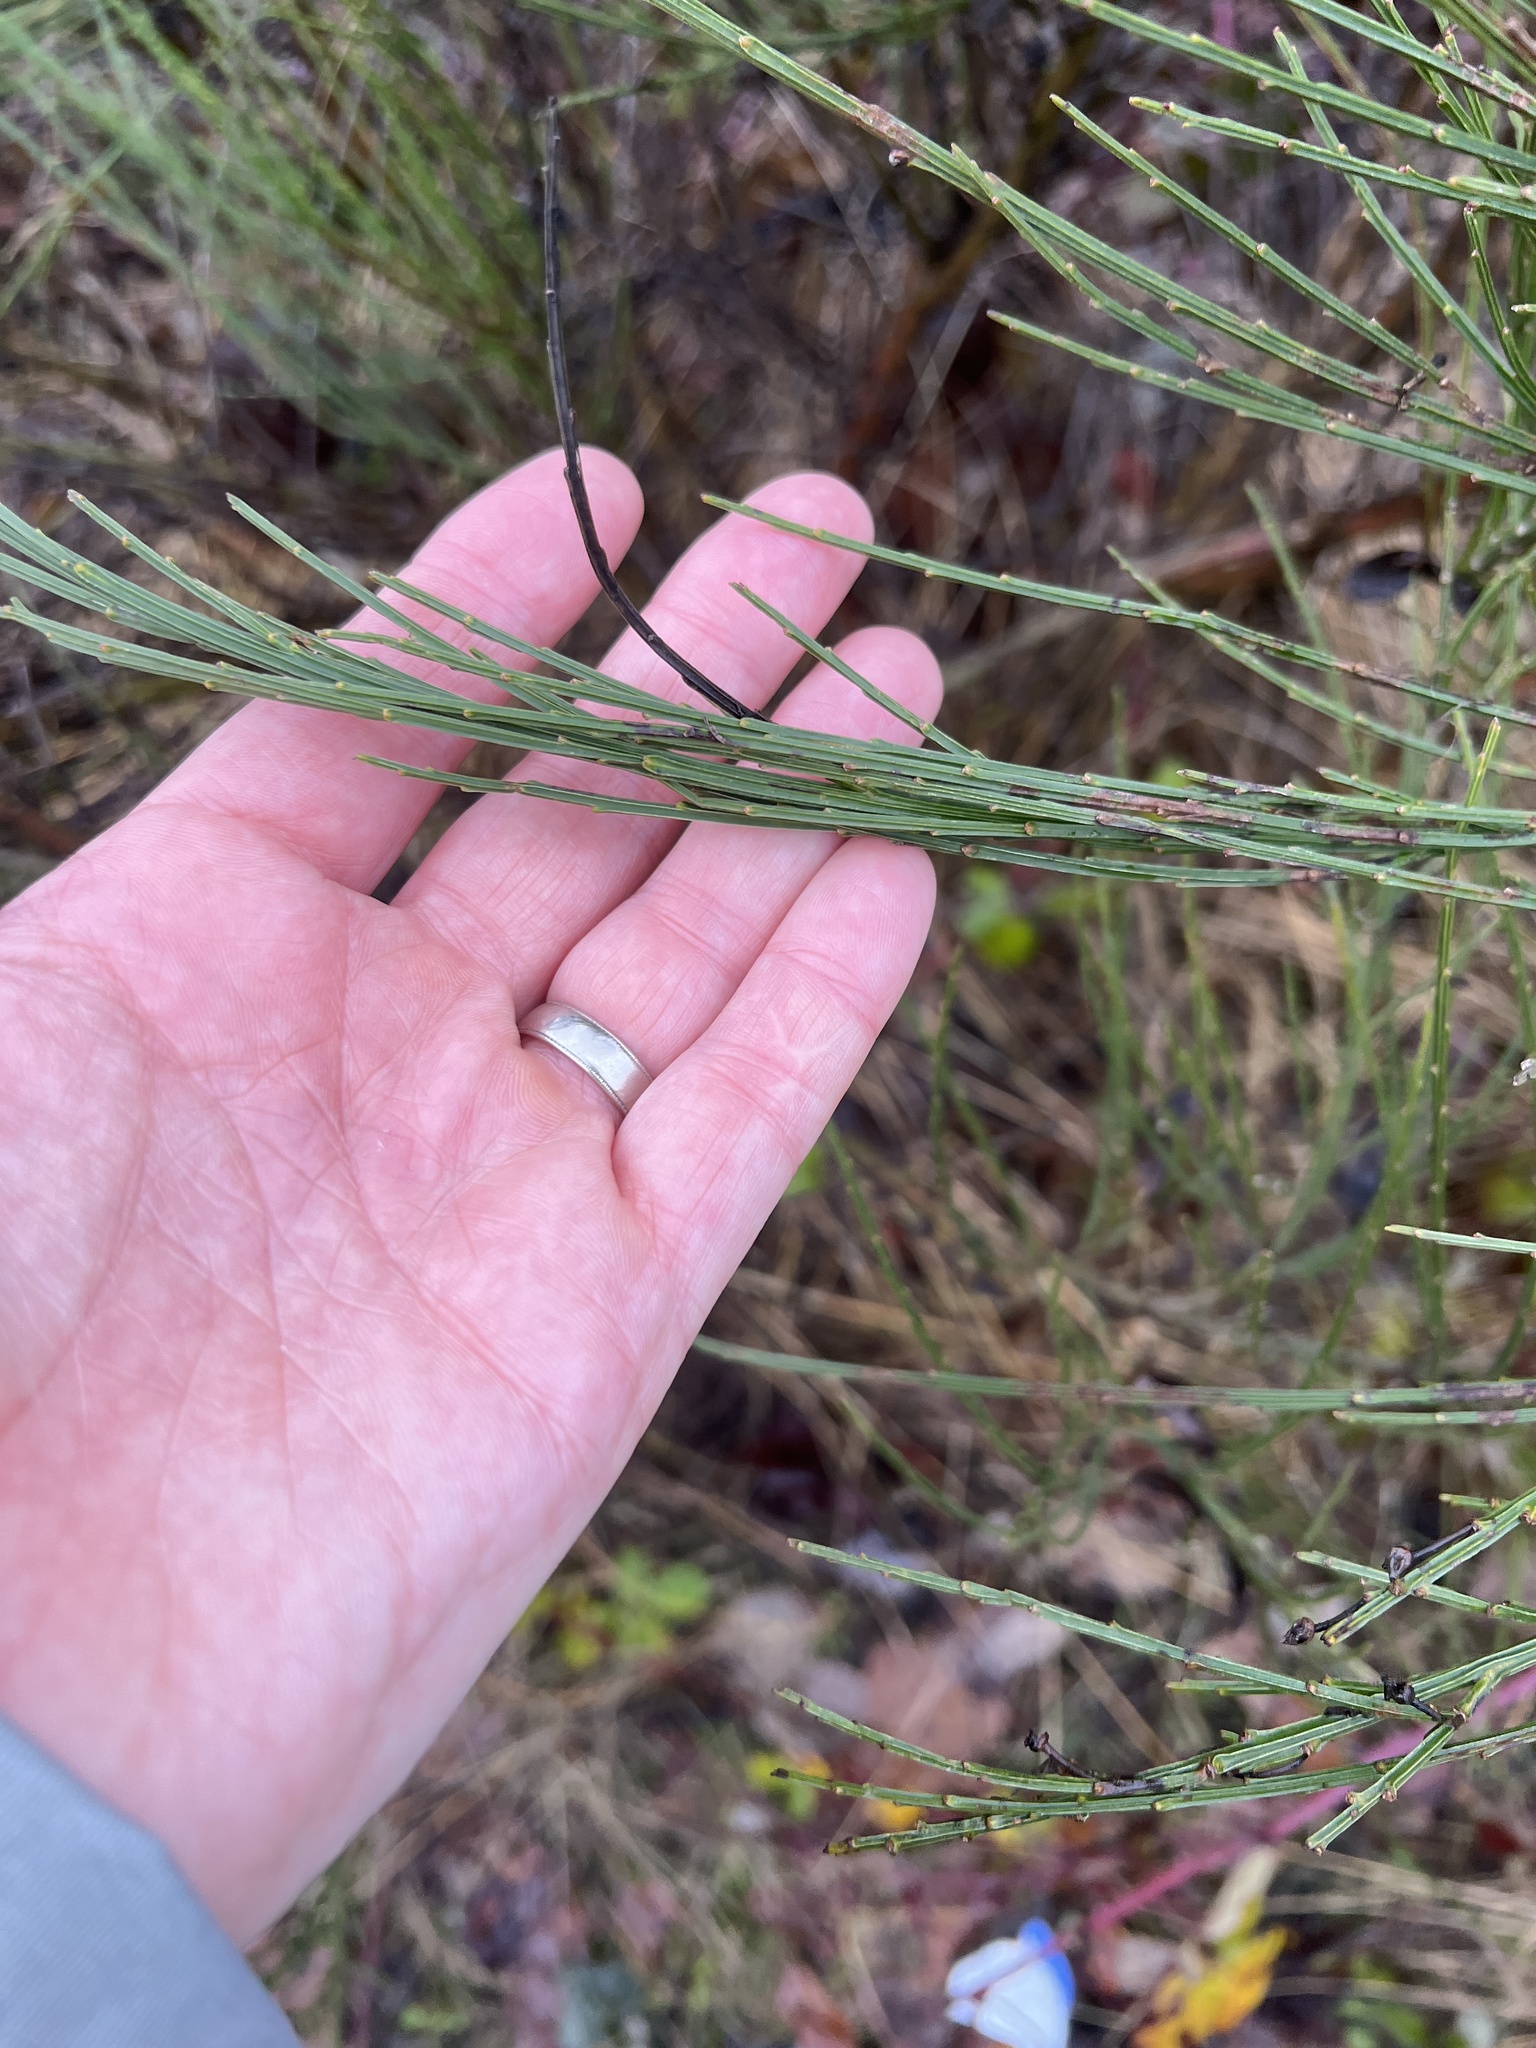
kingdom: Plantae
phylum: Tracheophyta
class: Magnoliopsida
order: Fabales
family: Fabaceae
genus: Cytisus
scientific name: Cytisus scoparius
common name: Scotch broom
